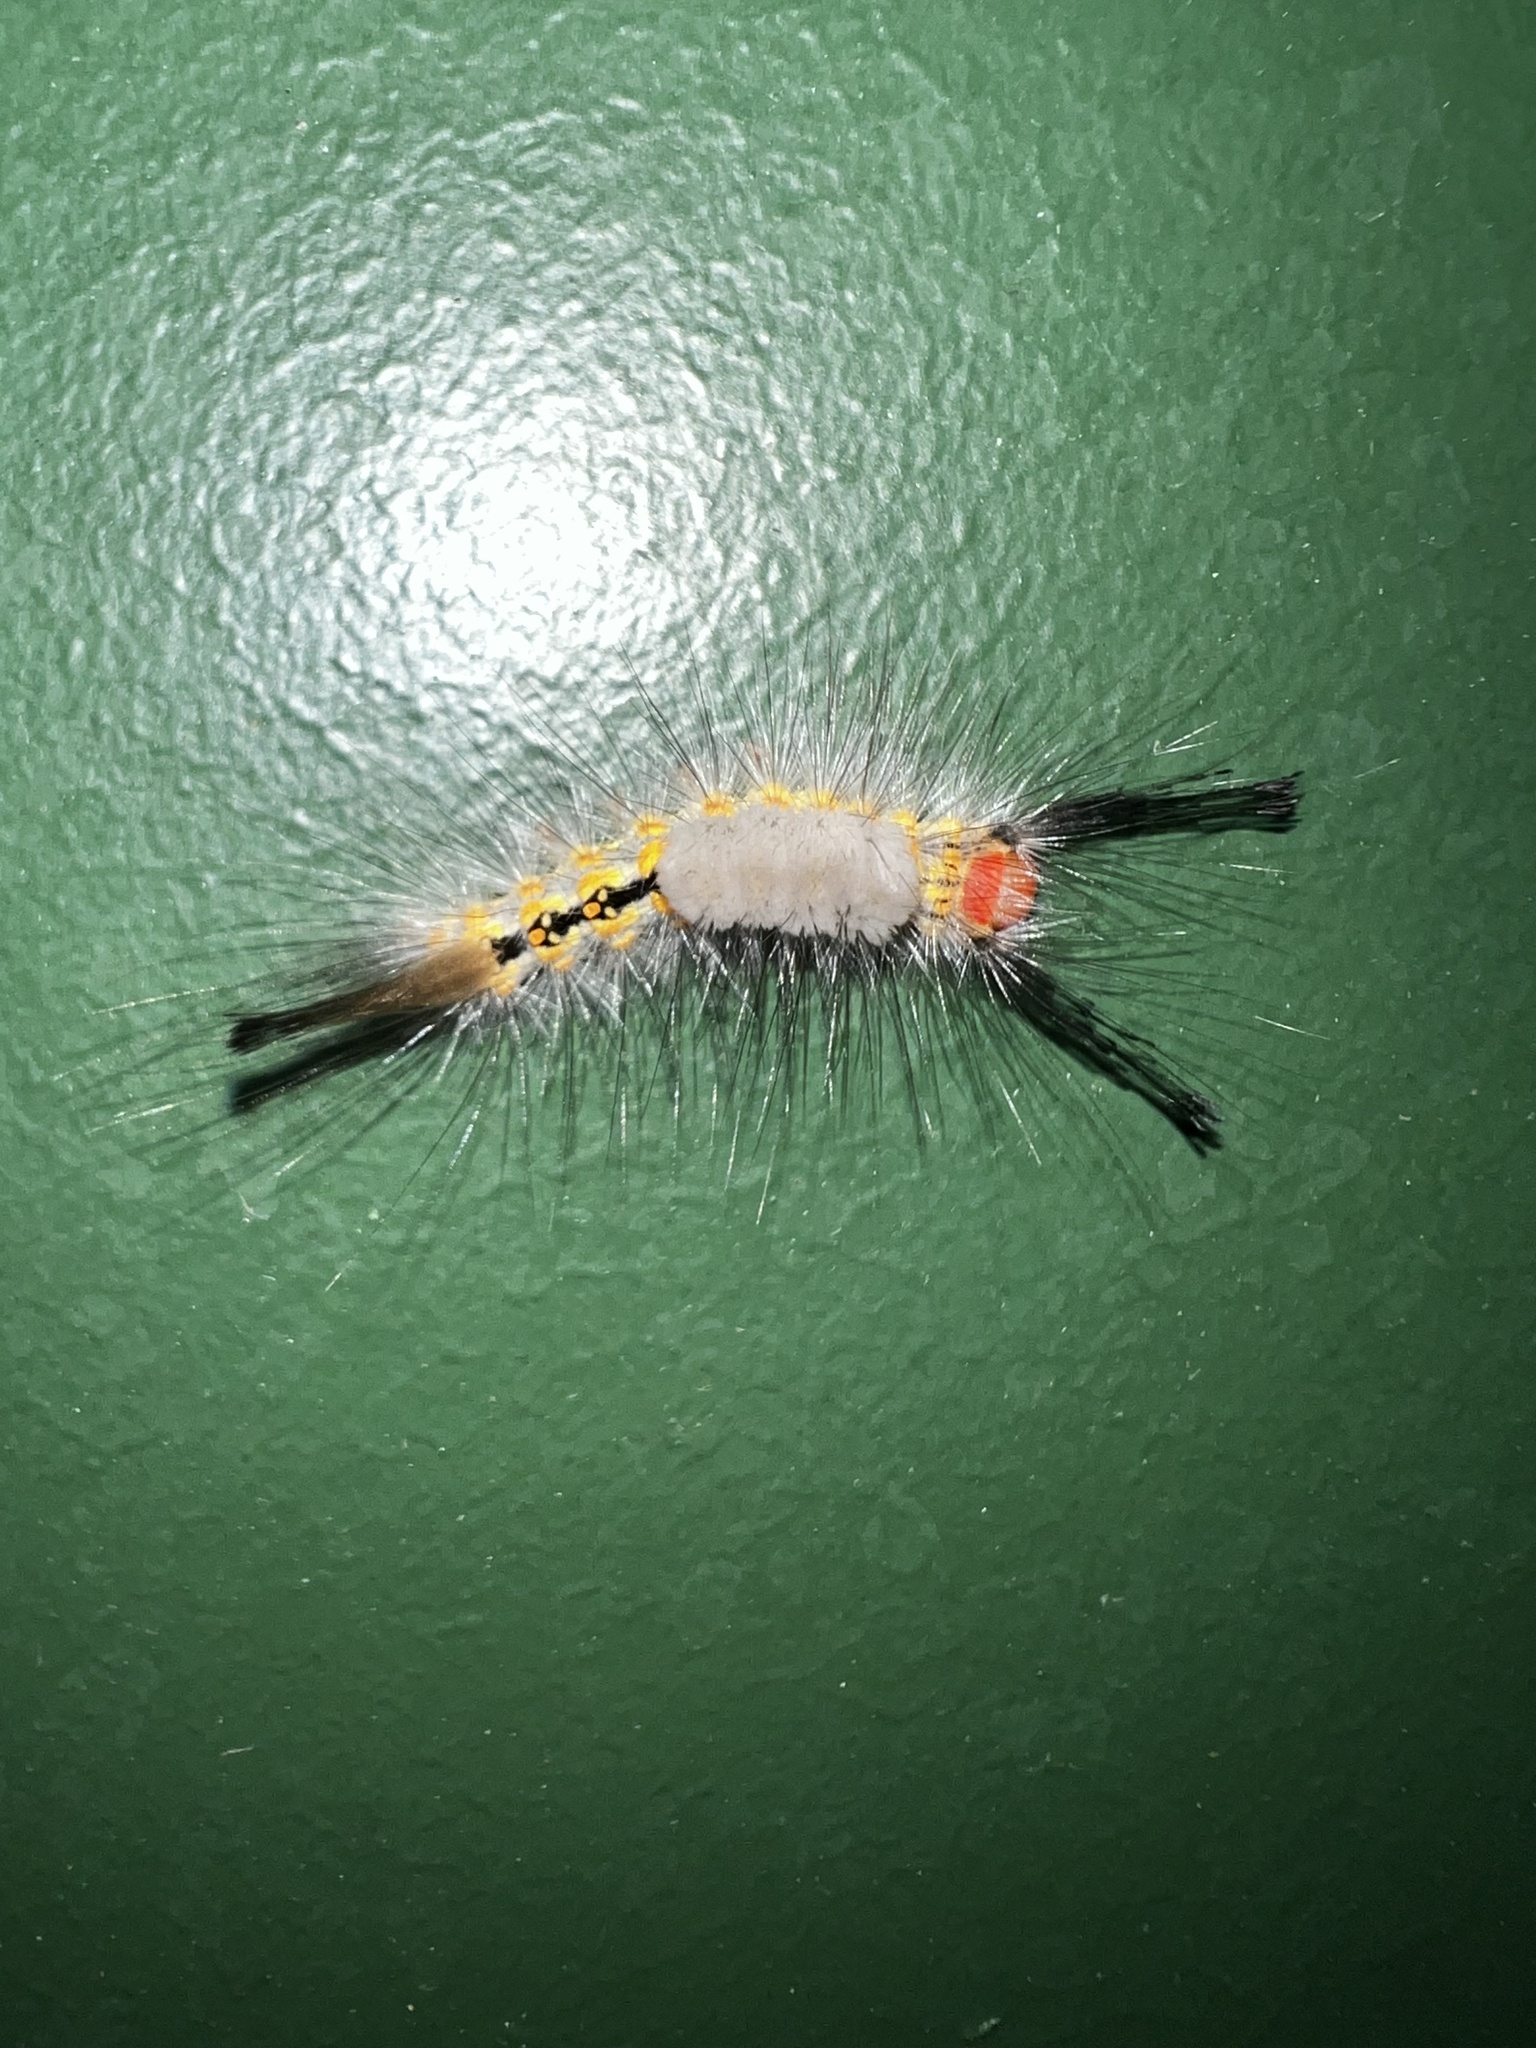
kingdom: Animalia
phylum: Arthropoda
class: Insecta
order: Lepidoptera
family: Erebidae
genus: Orgyia
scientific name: Orgyia detrita
